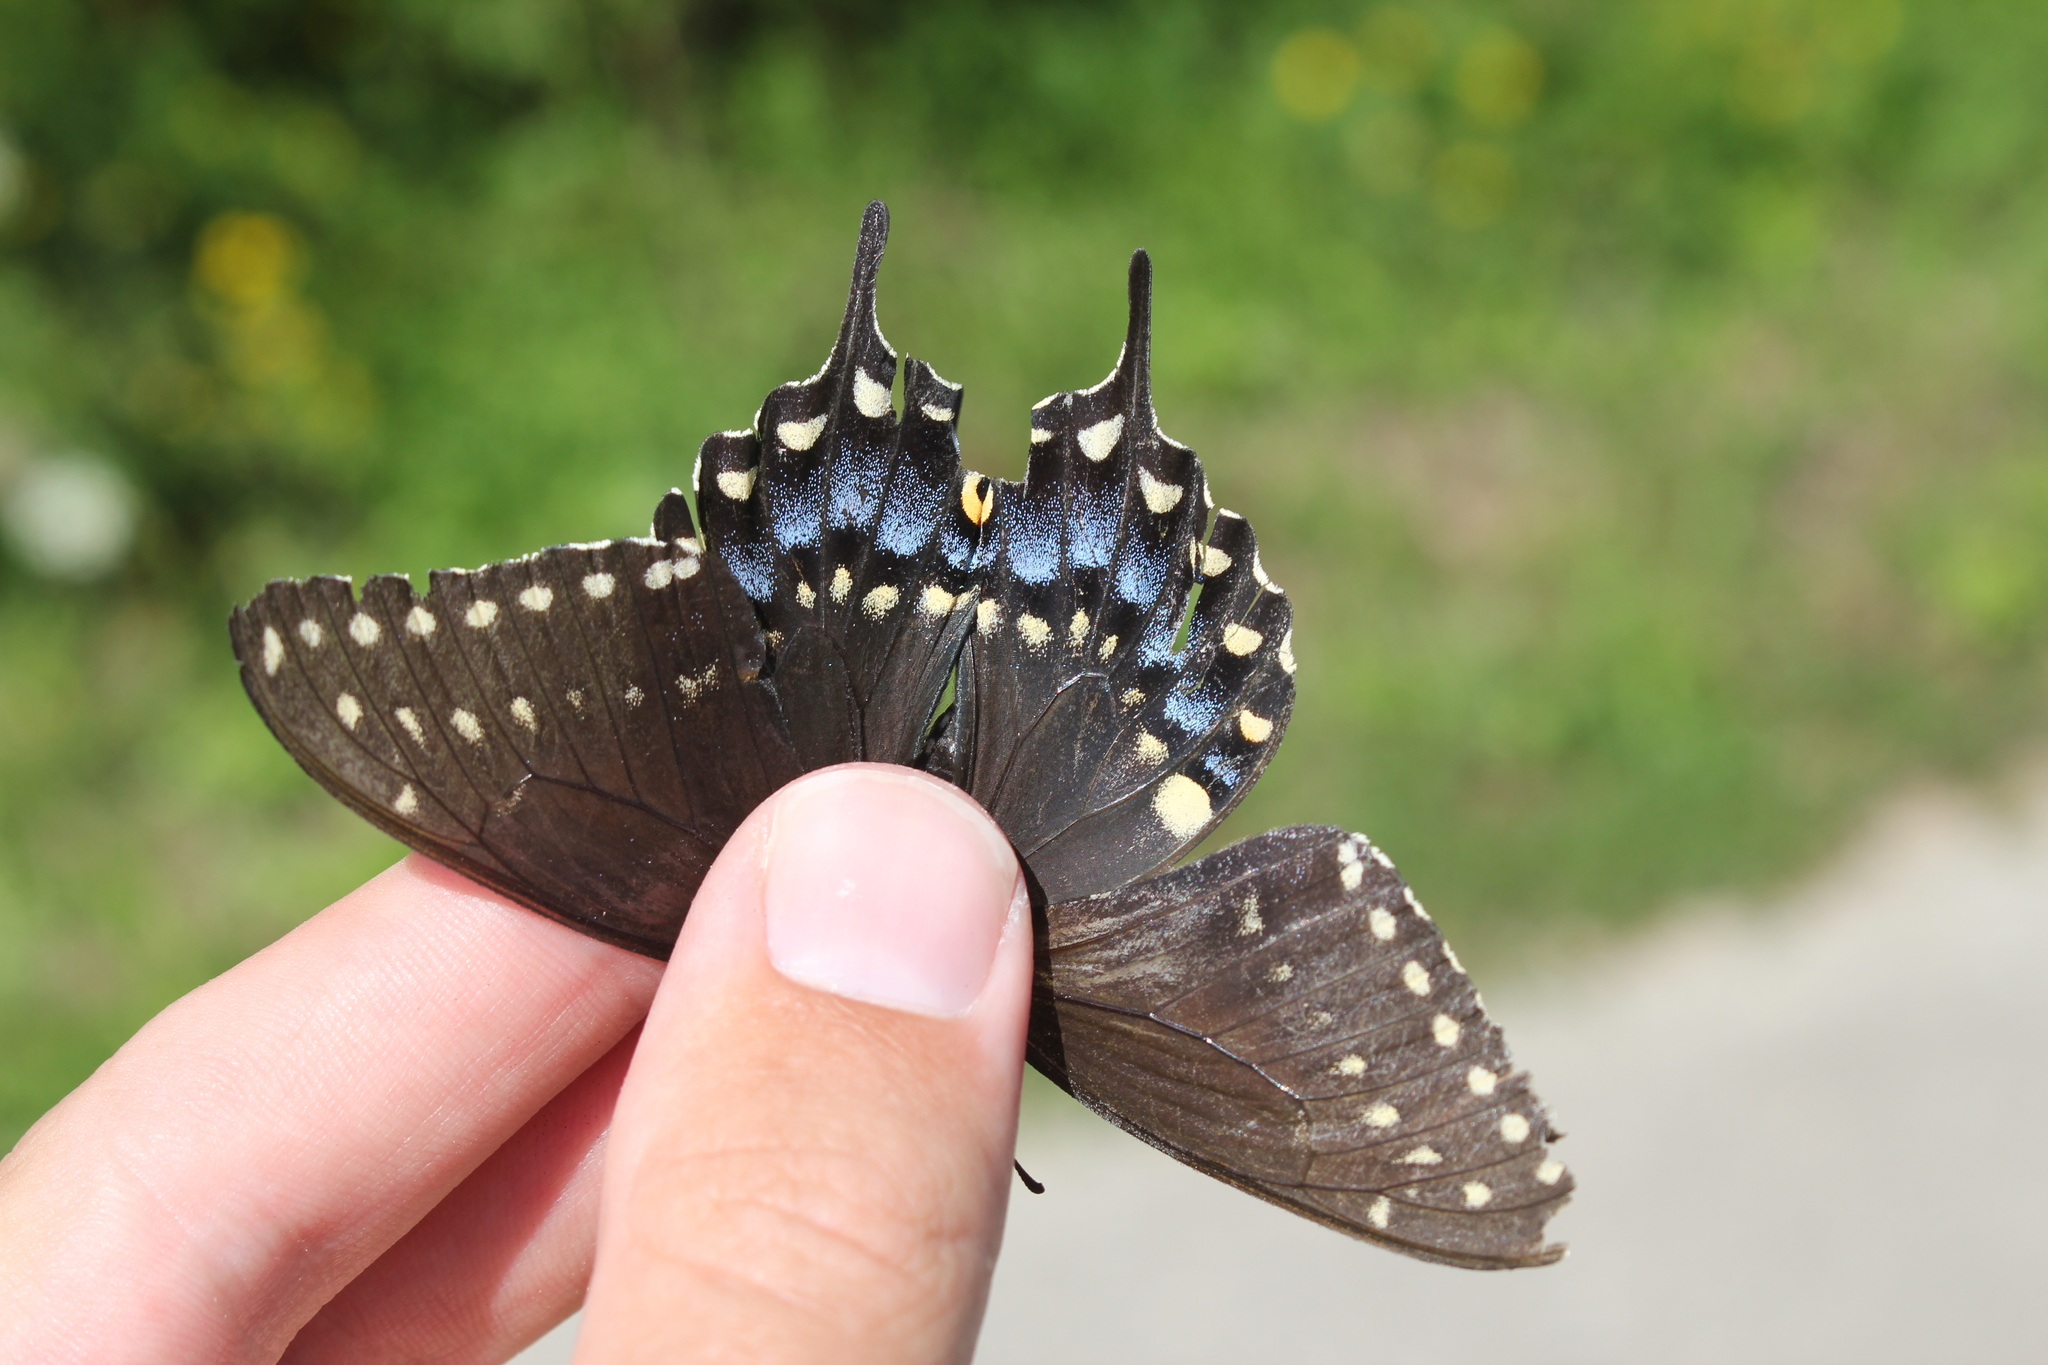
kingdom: Animalia
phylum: Arthropoda
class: Insecta
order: Lepidoptera
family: Papilionidae
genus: Papilio
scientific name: Papilio polyxenes
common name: Black swallowtail
